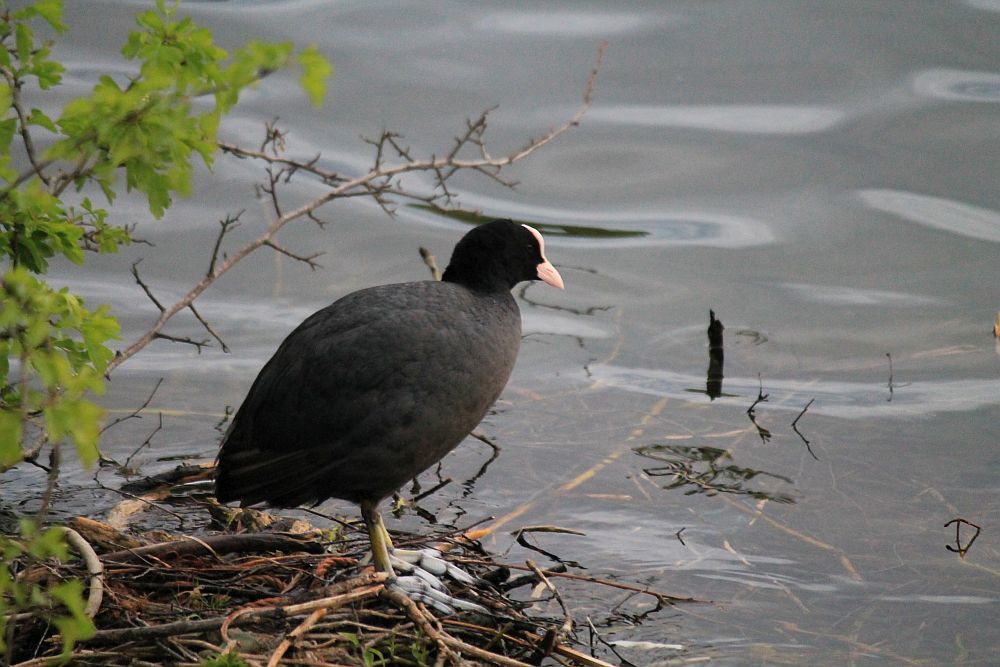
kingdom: Animalia
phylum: Chordata
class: Aves
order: Gruiformes
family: Rallidae
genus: Fulica
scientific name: Fulica atra
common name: Eurasian coot
